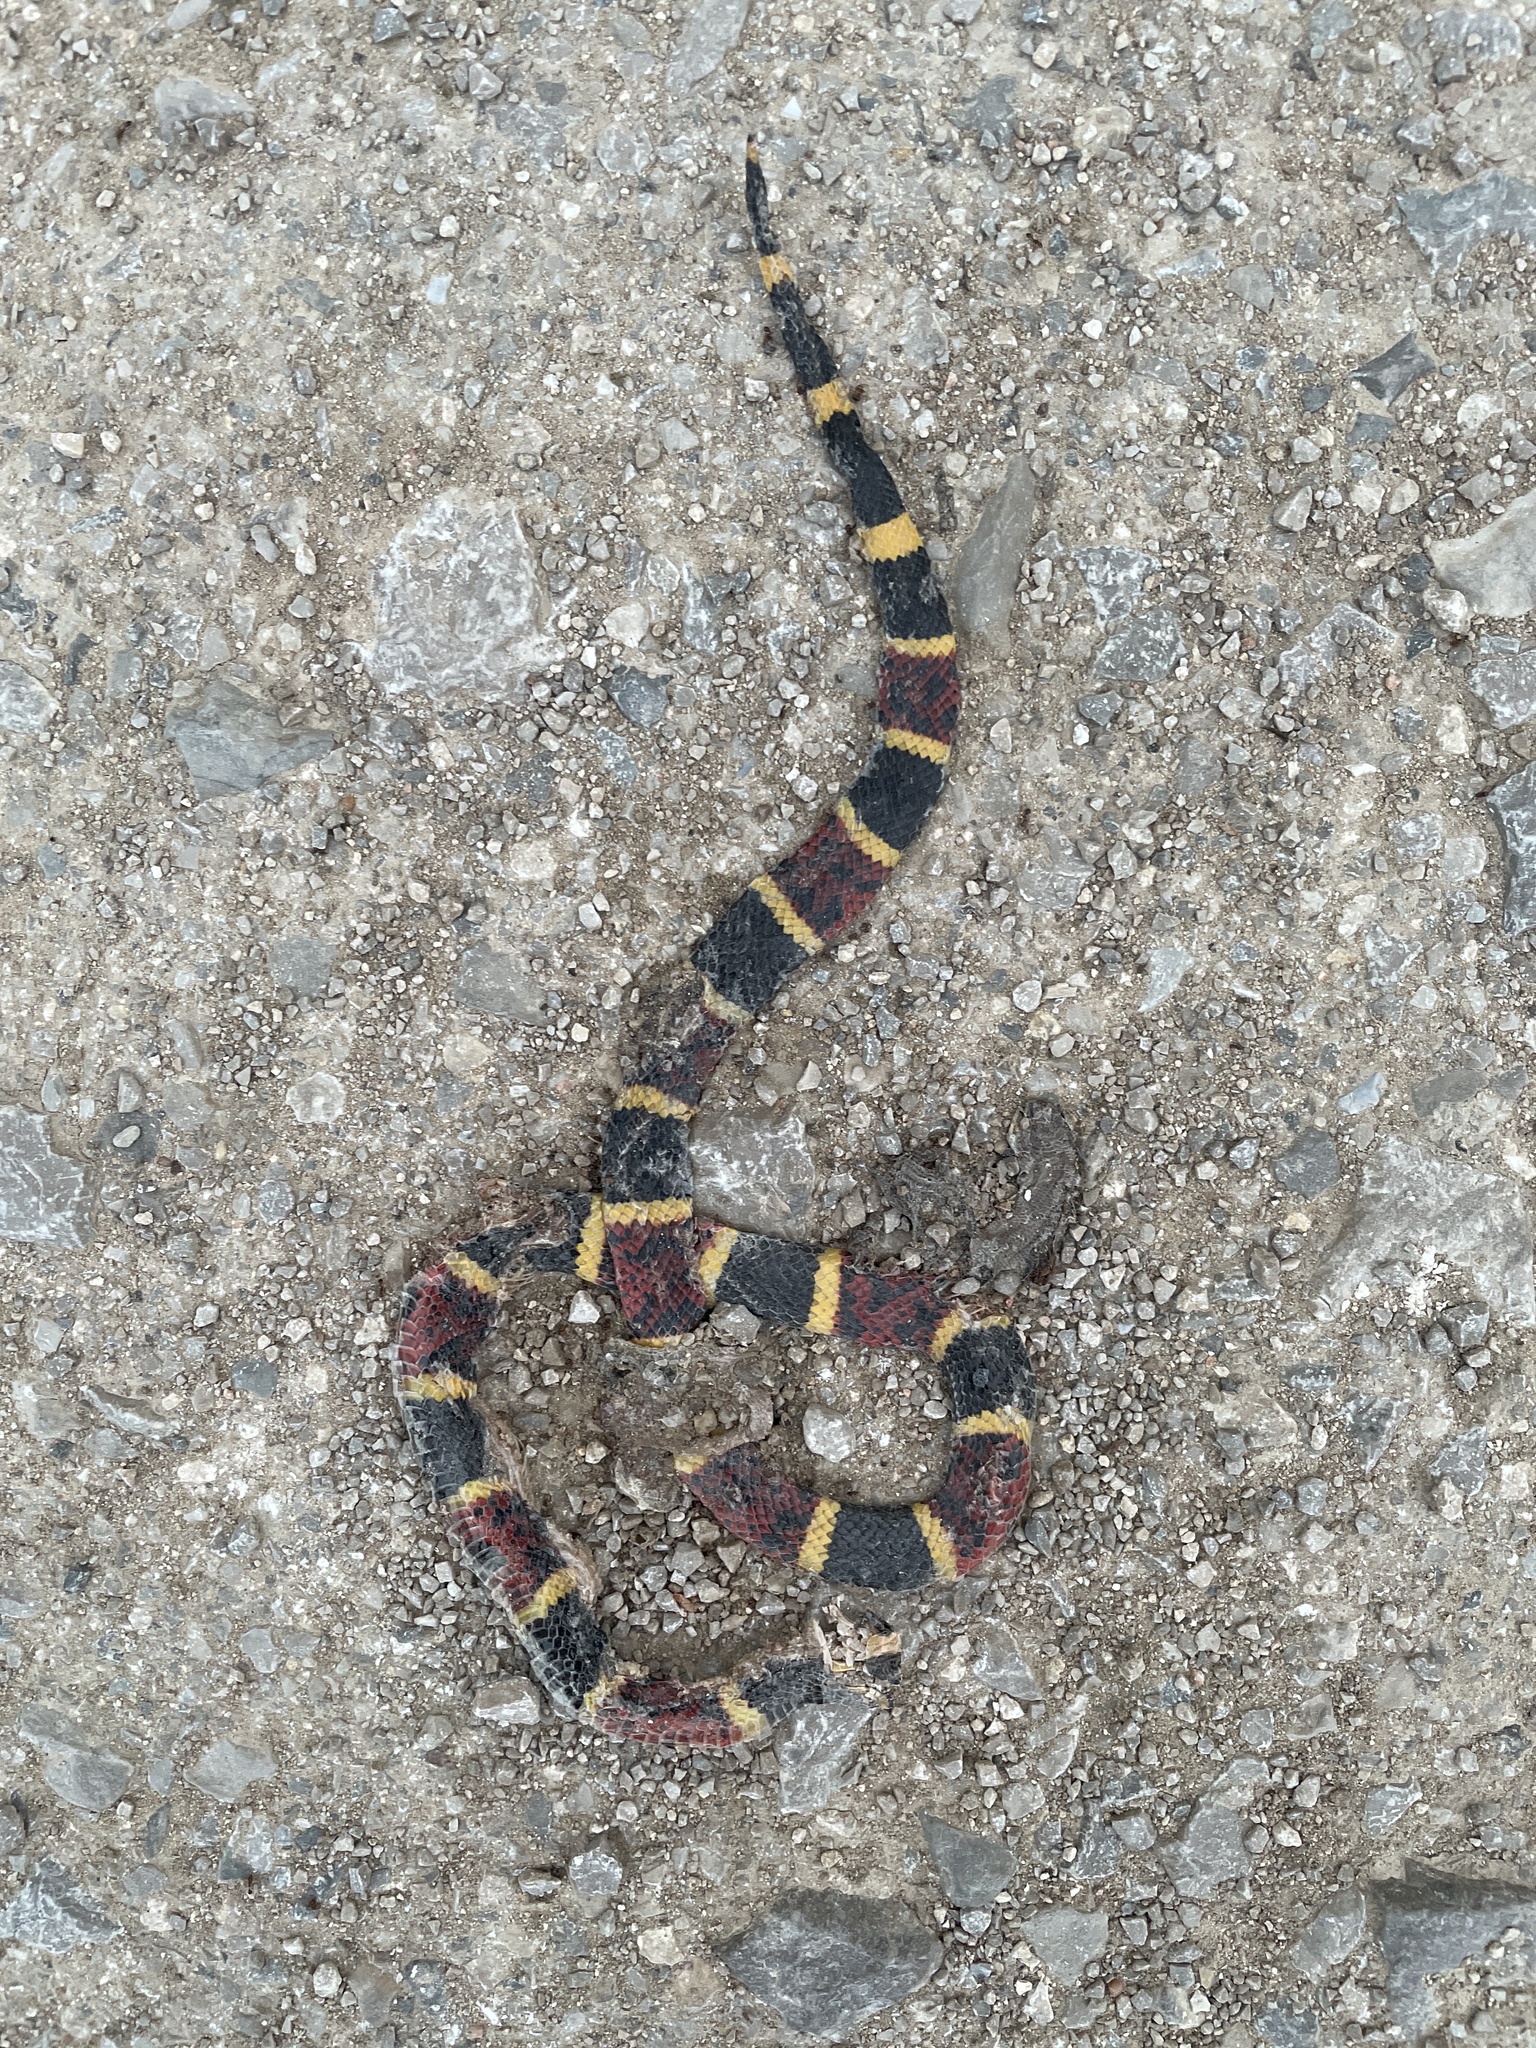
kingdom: Animalia
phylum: Chordata
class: Squamata
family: Elapidae
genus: Micrurus
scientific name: Micrurus tener
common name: Texas coral snake
